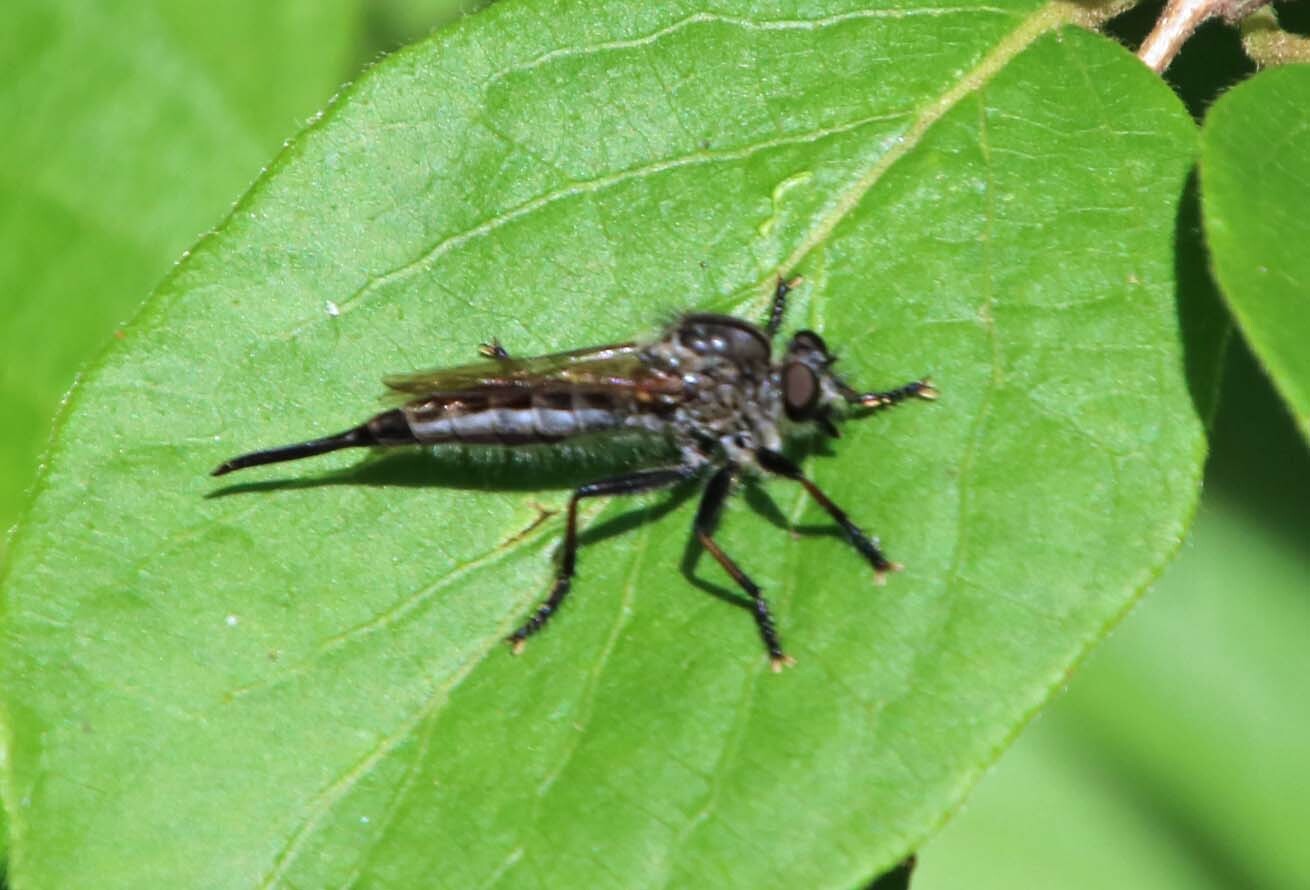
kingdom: Animalia
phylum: Arthropoda
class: Insecta
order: Diptera
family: Asilidae
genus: Efferia
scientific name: Efferia aestuans
